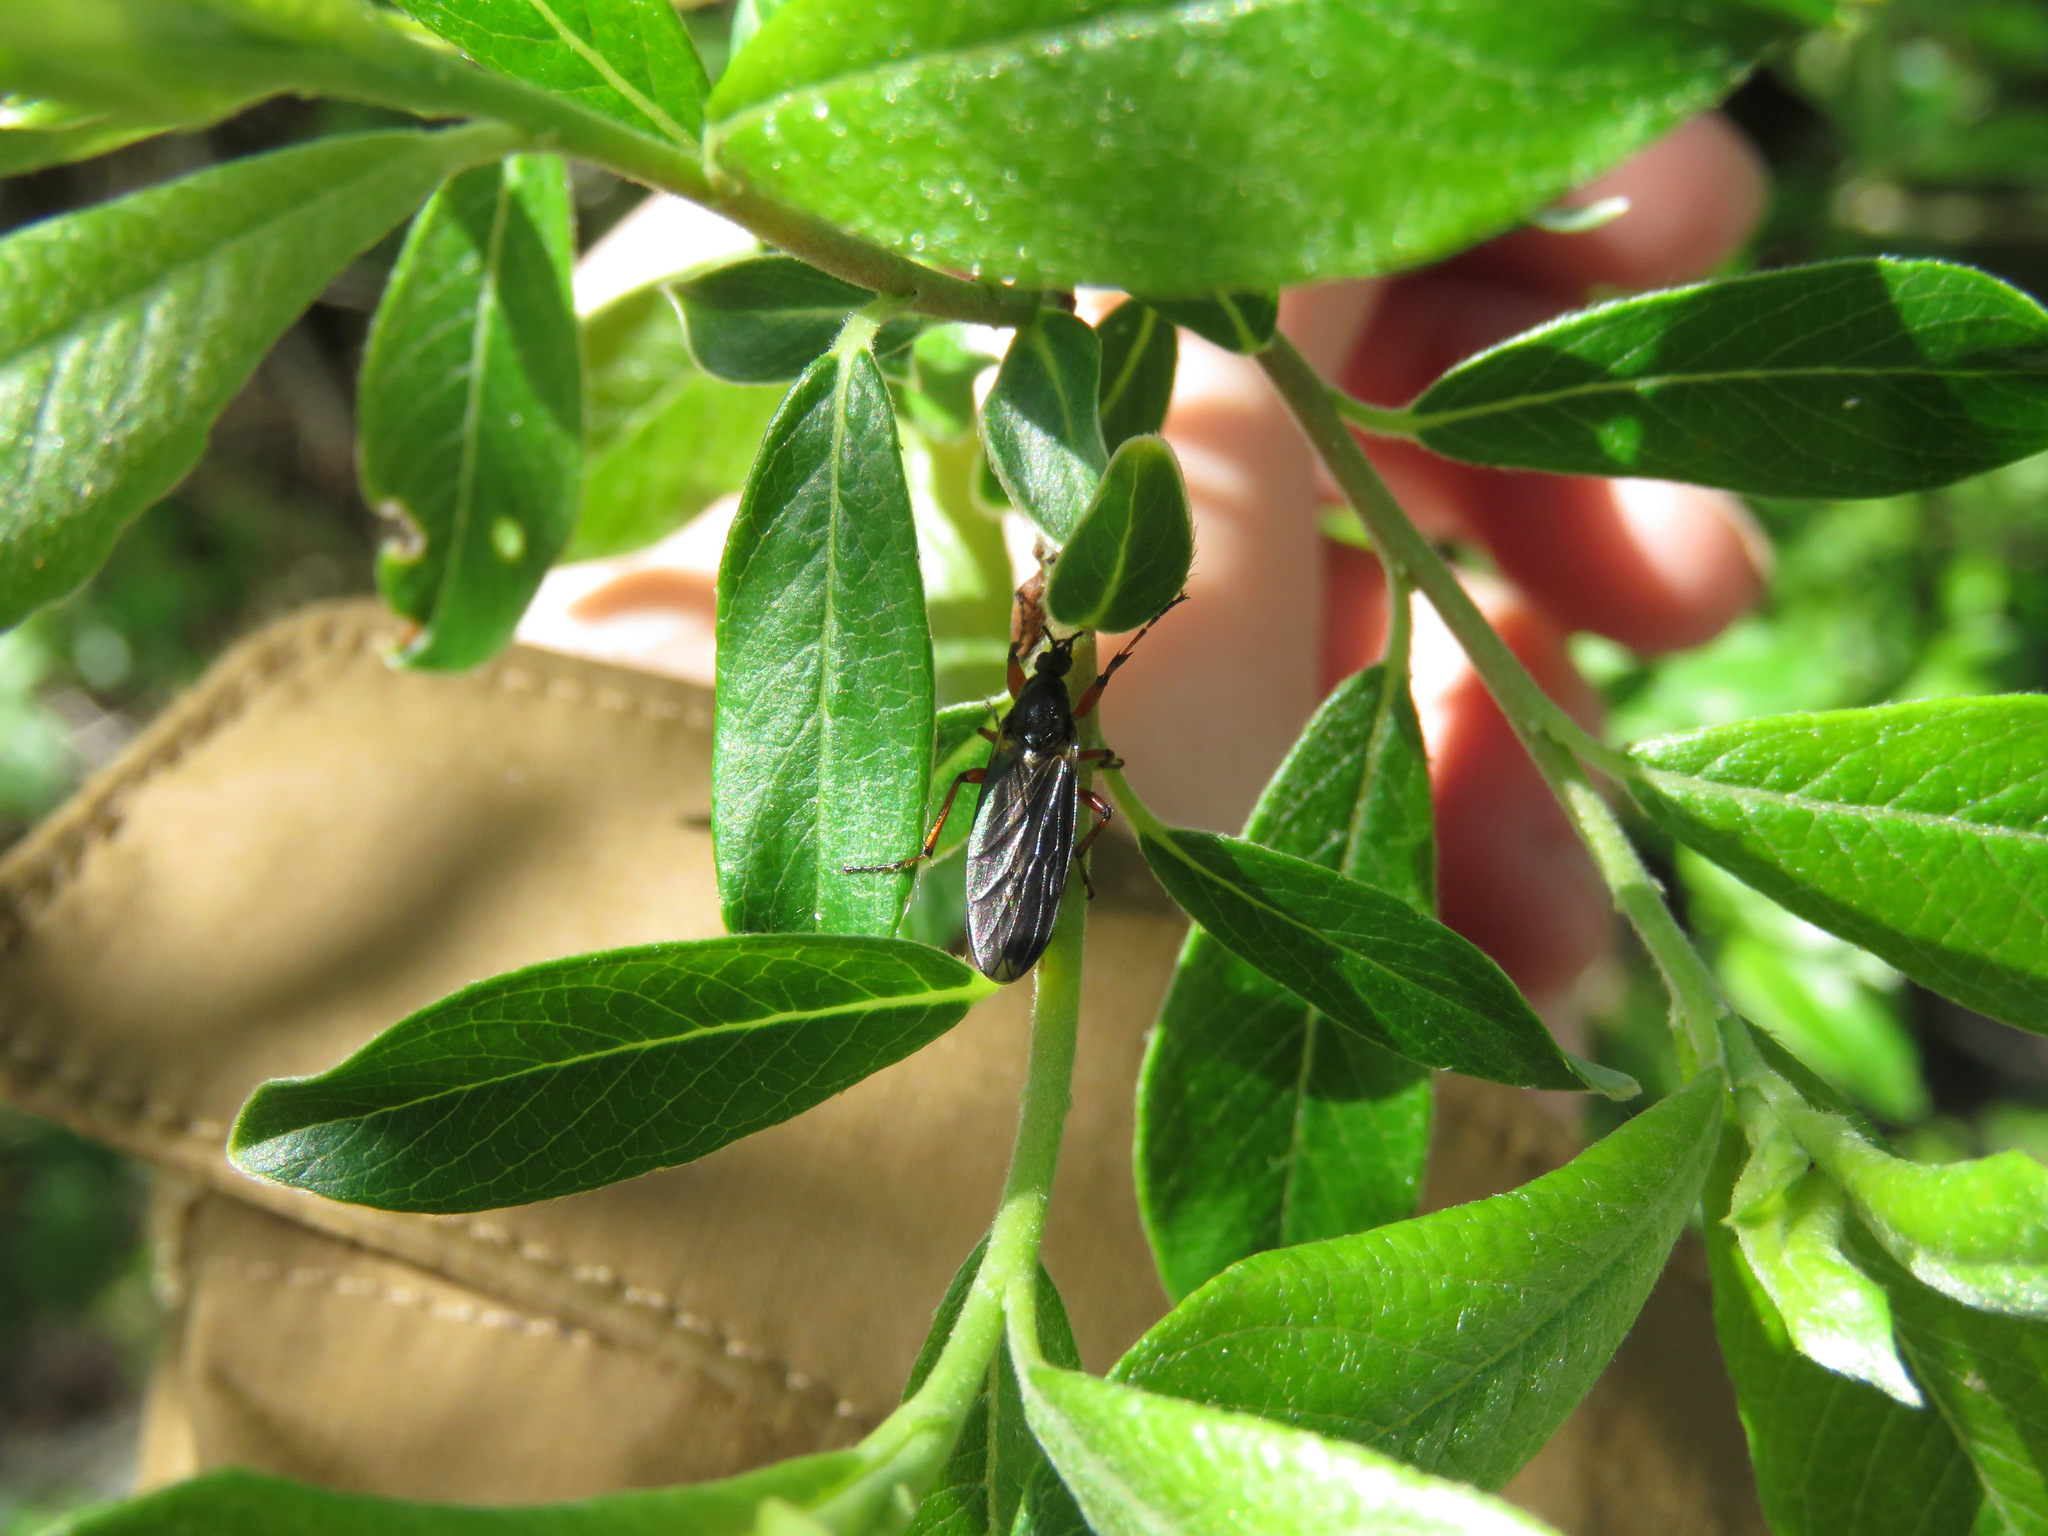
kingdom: Animalia
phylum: Arthropoda
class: Insecta
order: Diptera
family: Bibionidae
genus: Bibio
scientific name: Bibio
